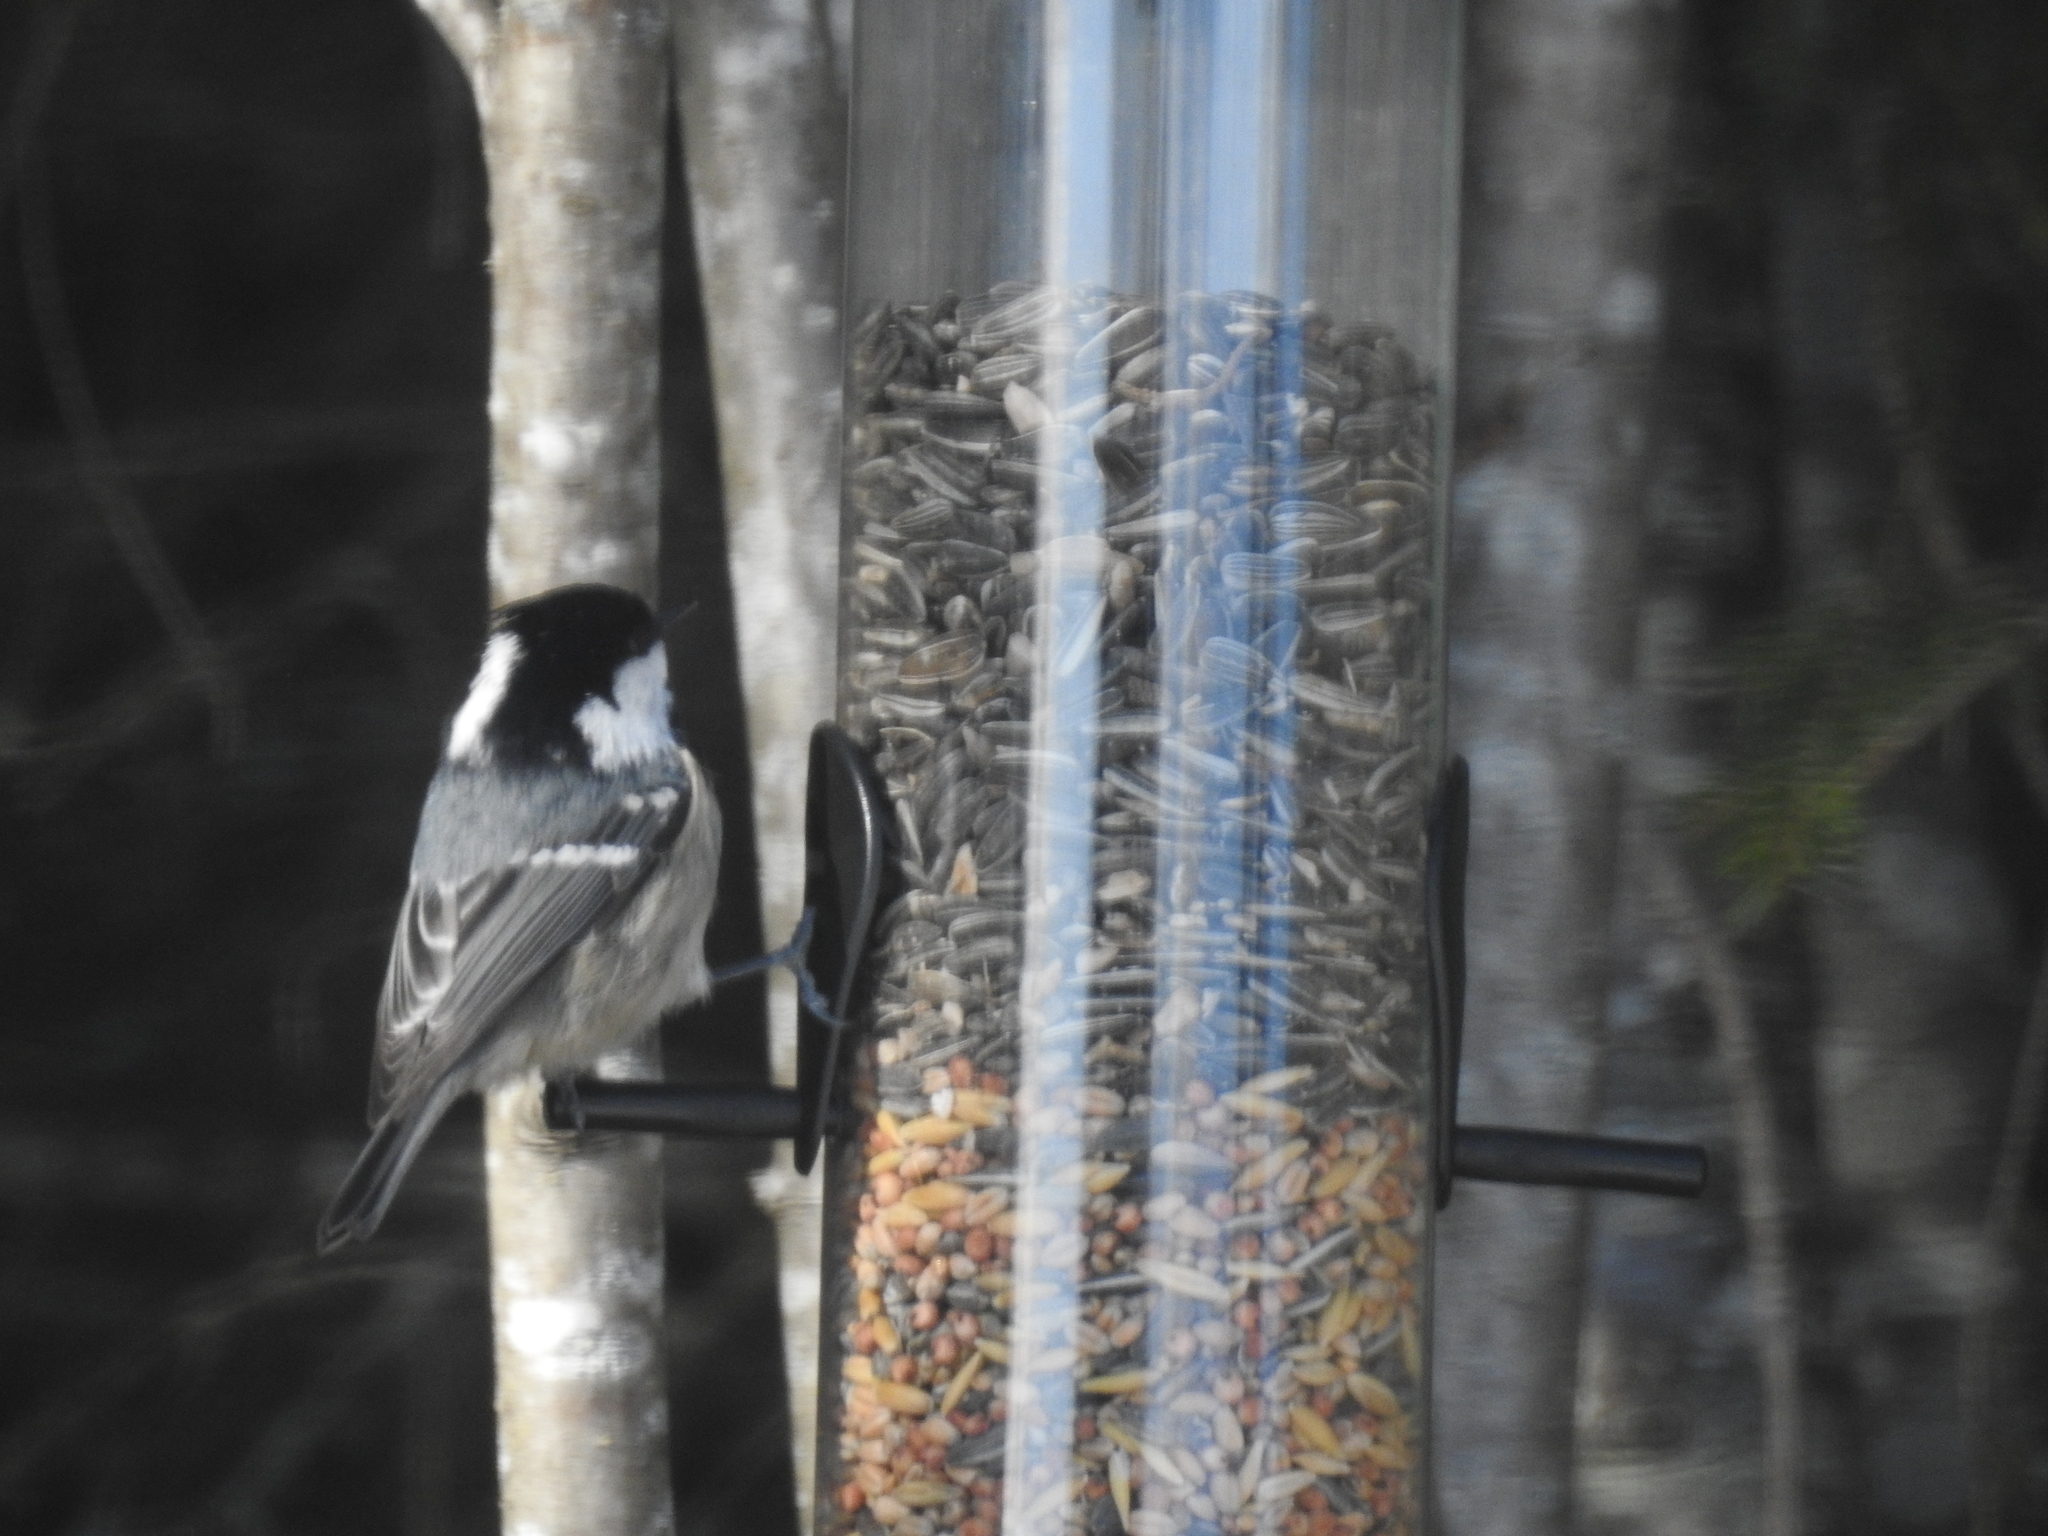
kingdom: Animalia
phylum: Chordata
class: Aves
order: Passeriformes
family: Paridae
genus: Periparus
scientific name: Periparus ater
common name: Coal tit
